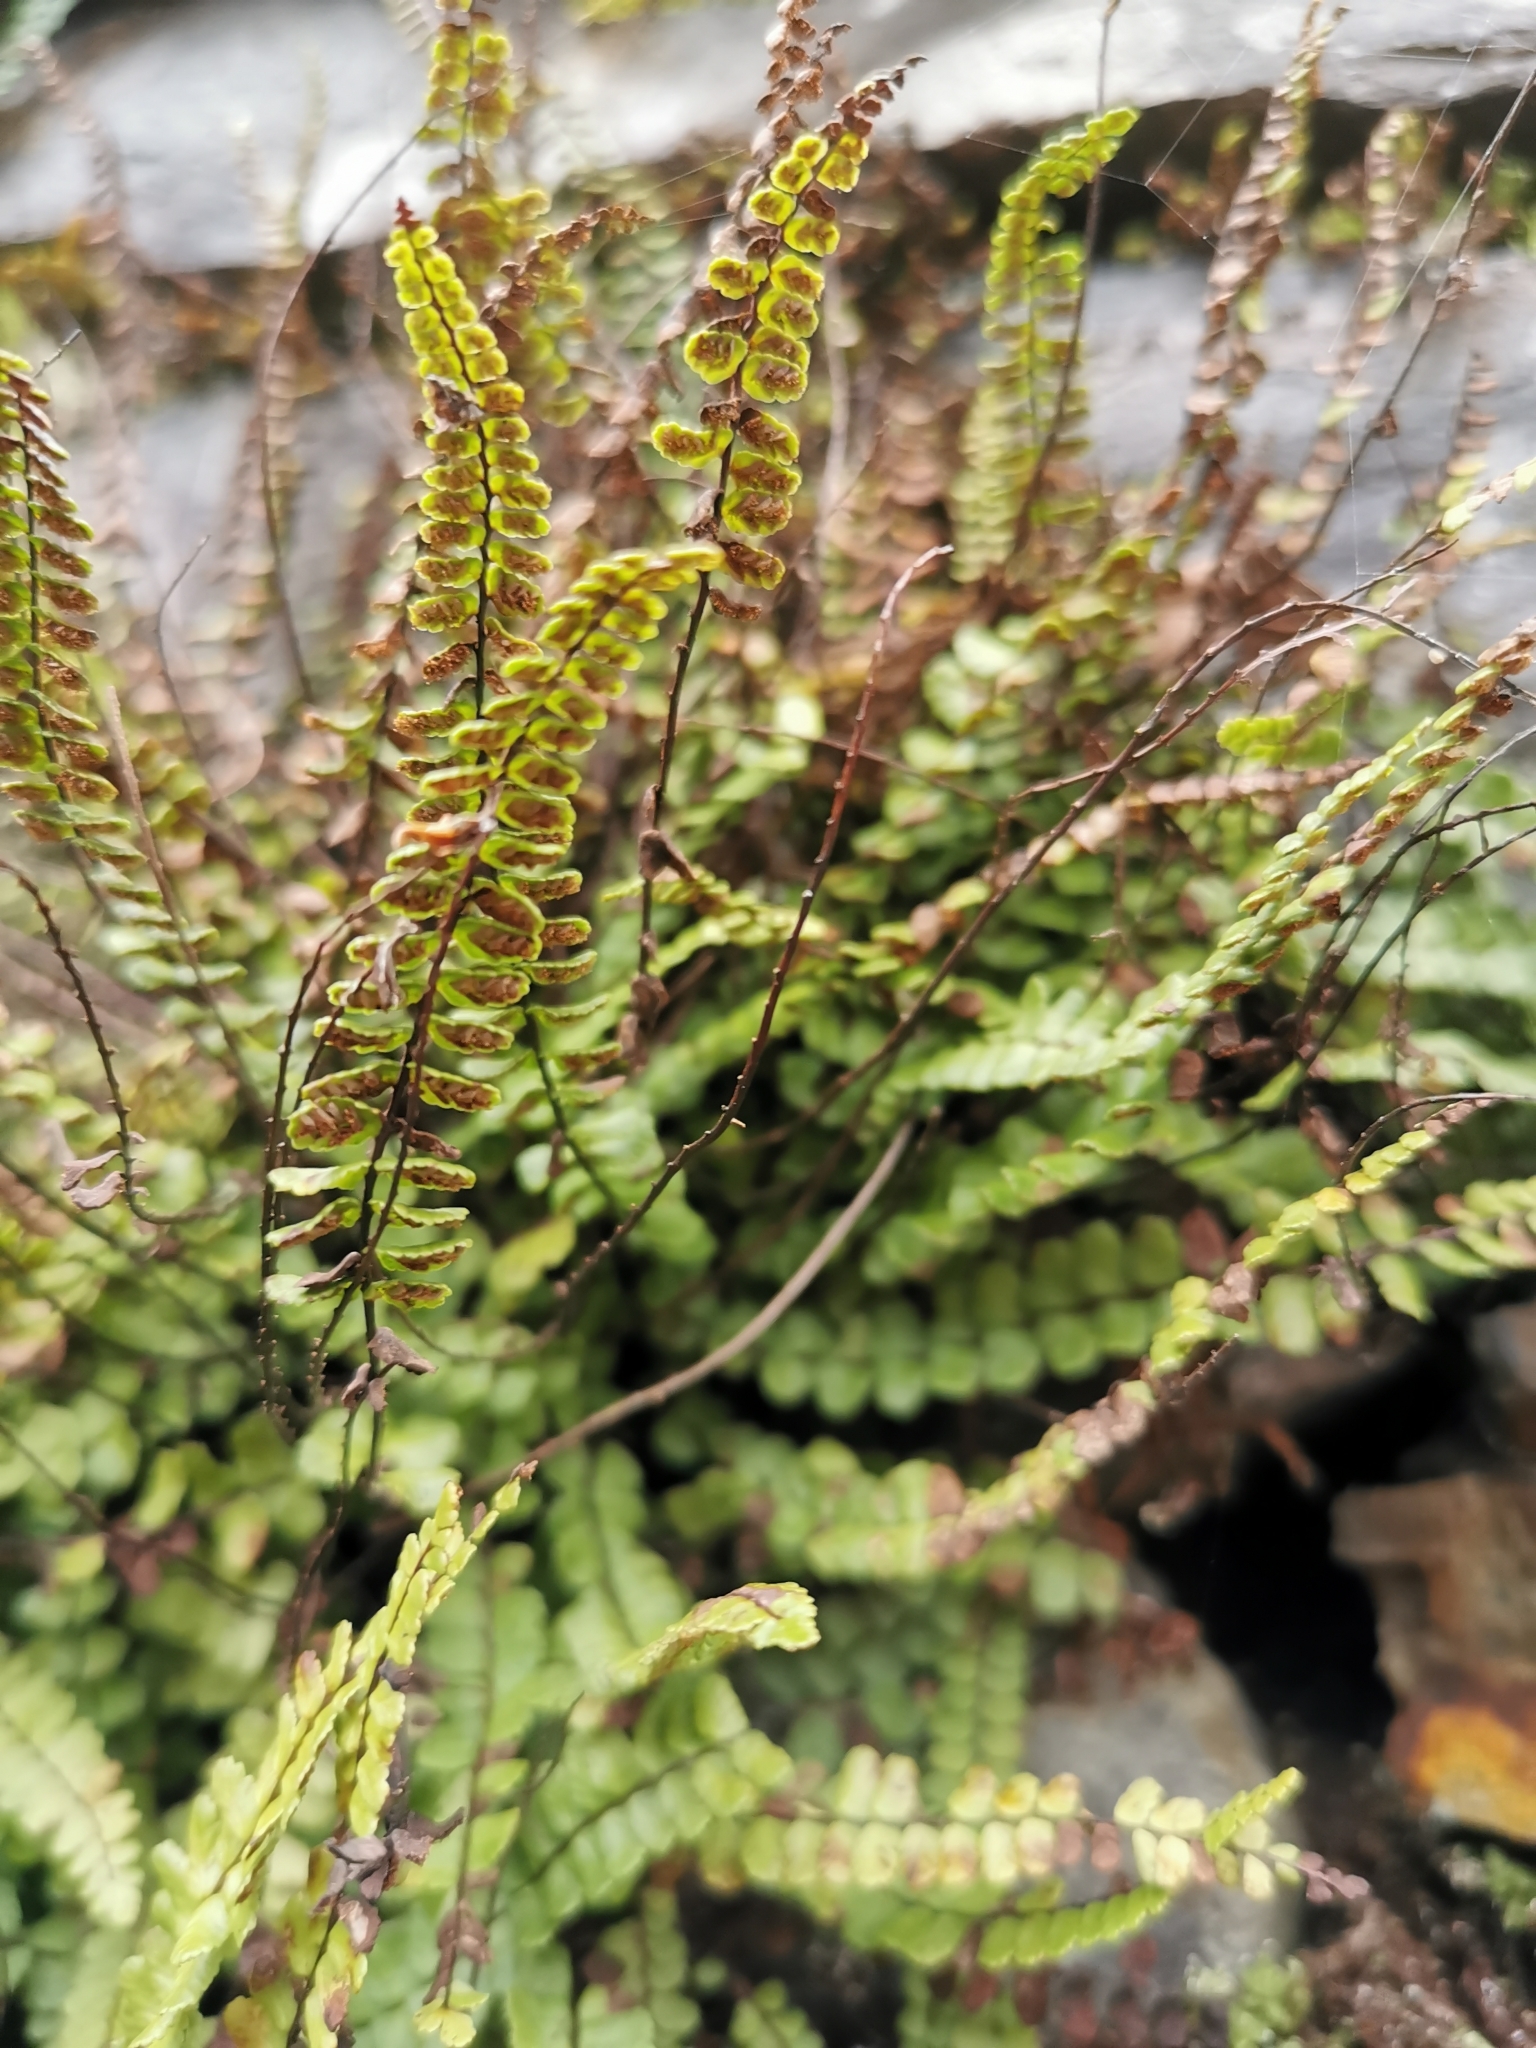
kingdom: Plantae
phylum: Tracheophyta
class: Polypodiopsida
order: Polypodiales
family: Aspleniaceae
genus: Asplenium
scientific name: Asplenium trichomanes
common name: Maidenhair spleenwort
